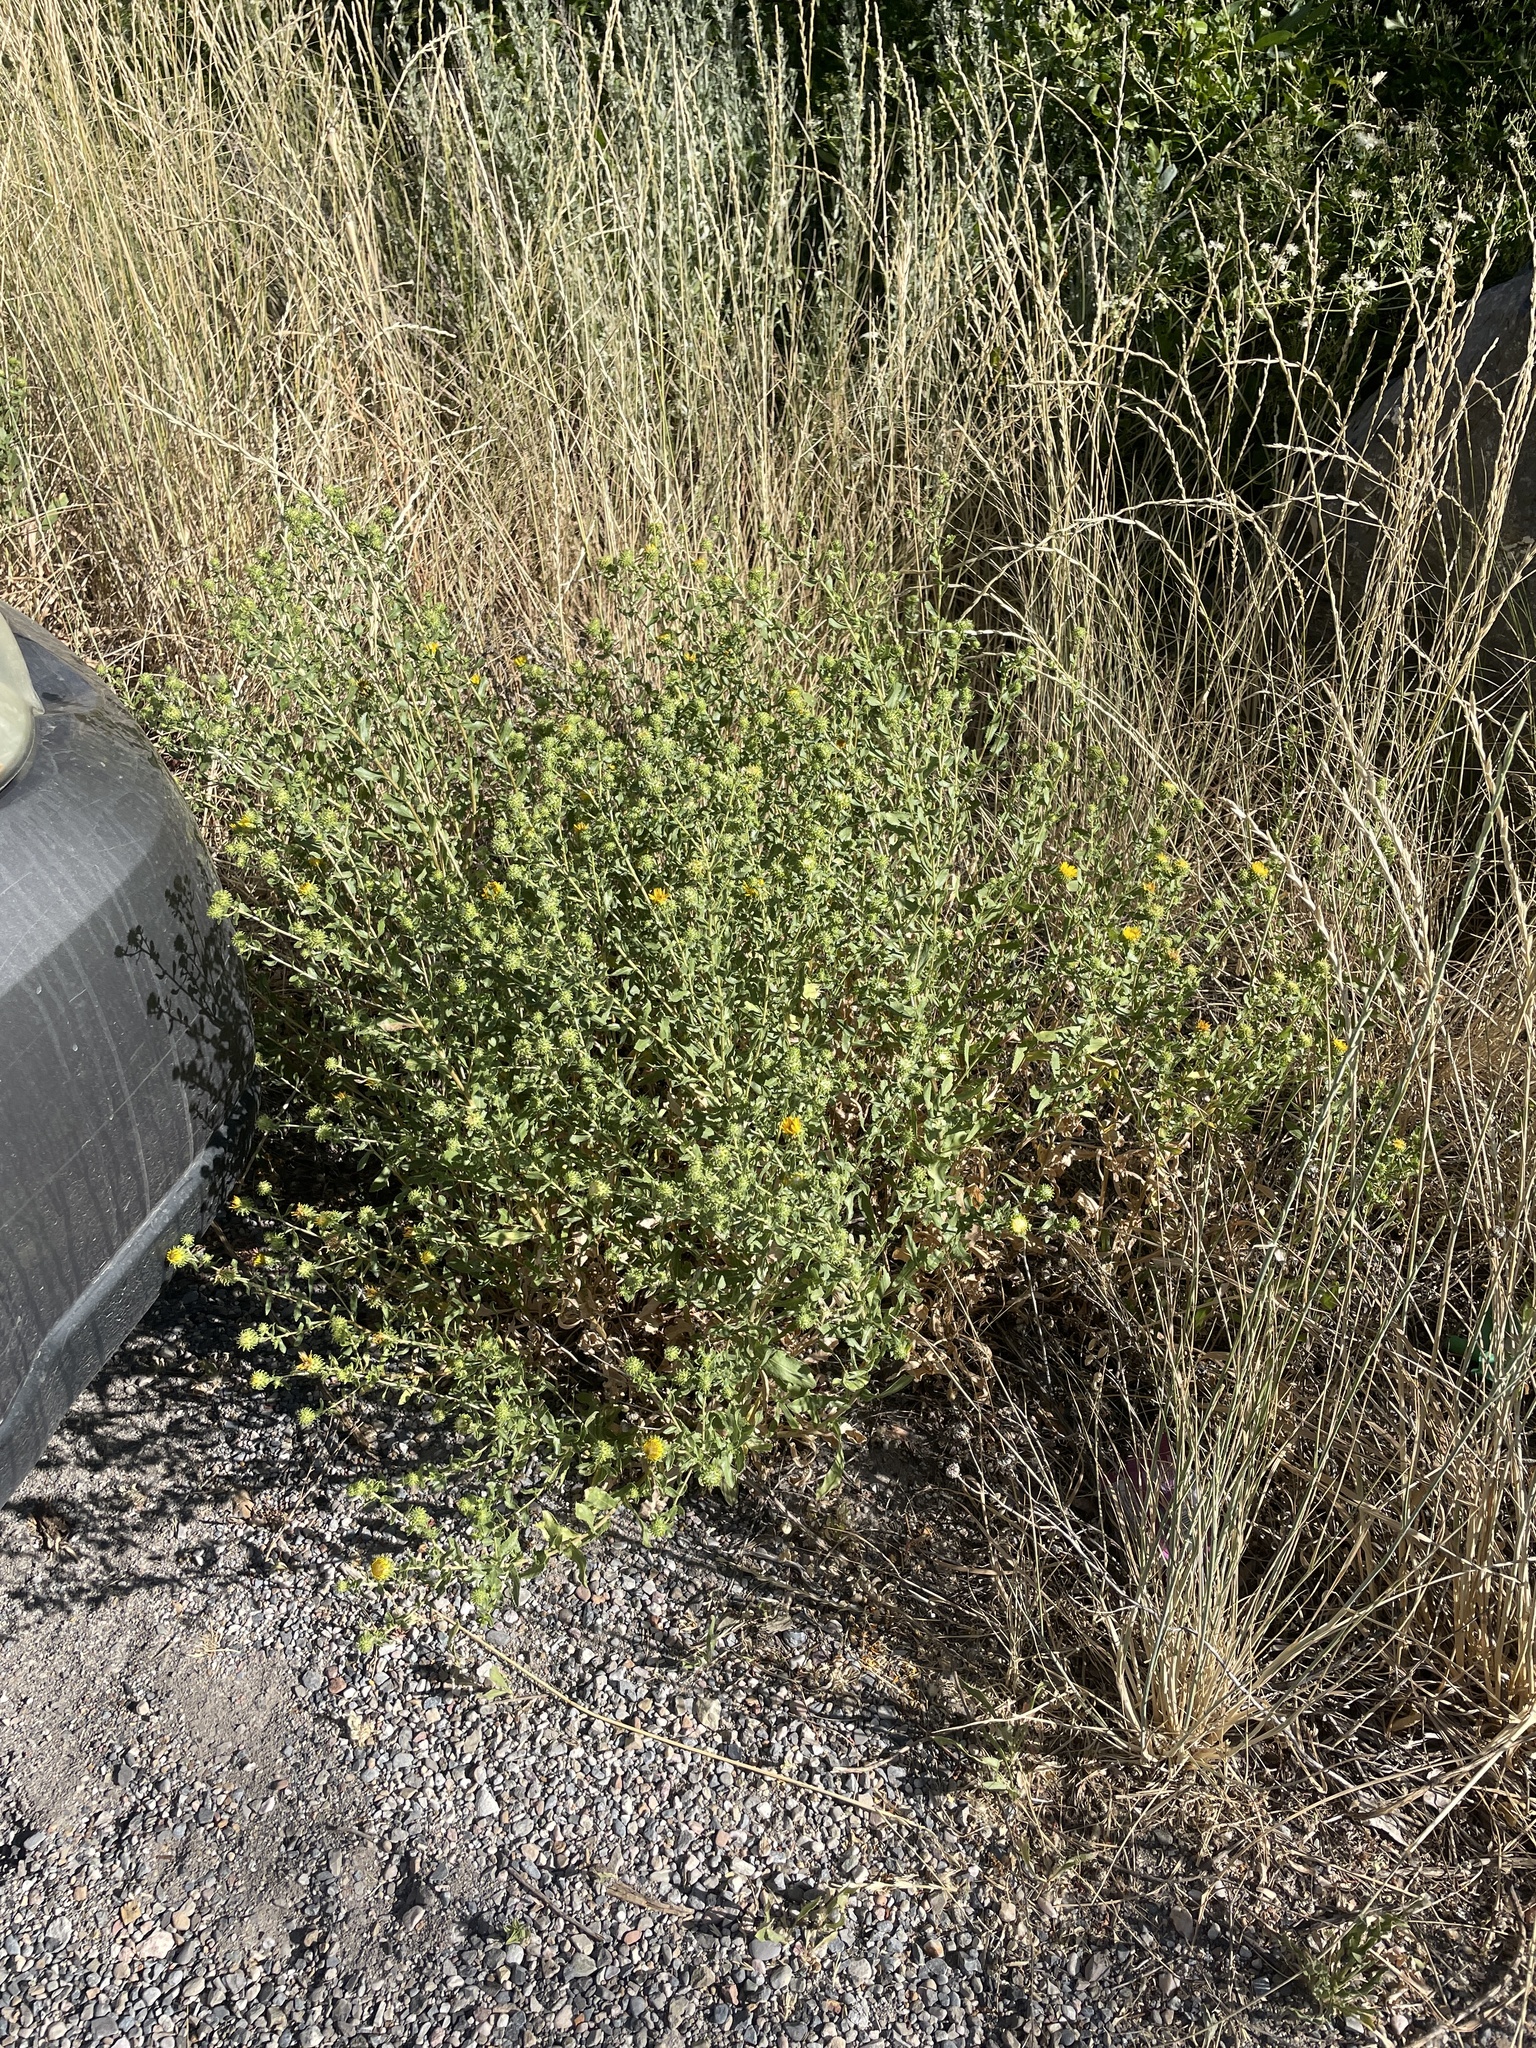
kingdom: Plantae
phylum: Tracheophyta
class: Magnoliopsida
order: Asterales
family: Asteraceae
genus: Grindelia
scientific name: Grindelia squarrosa
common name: Curly-cup gumweed
